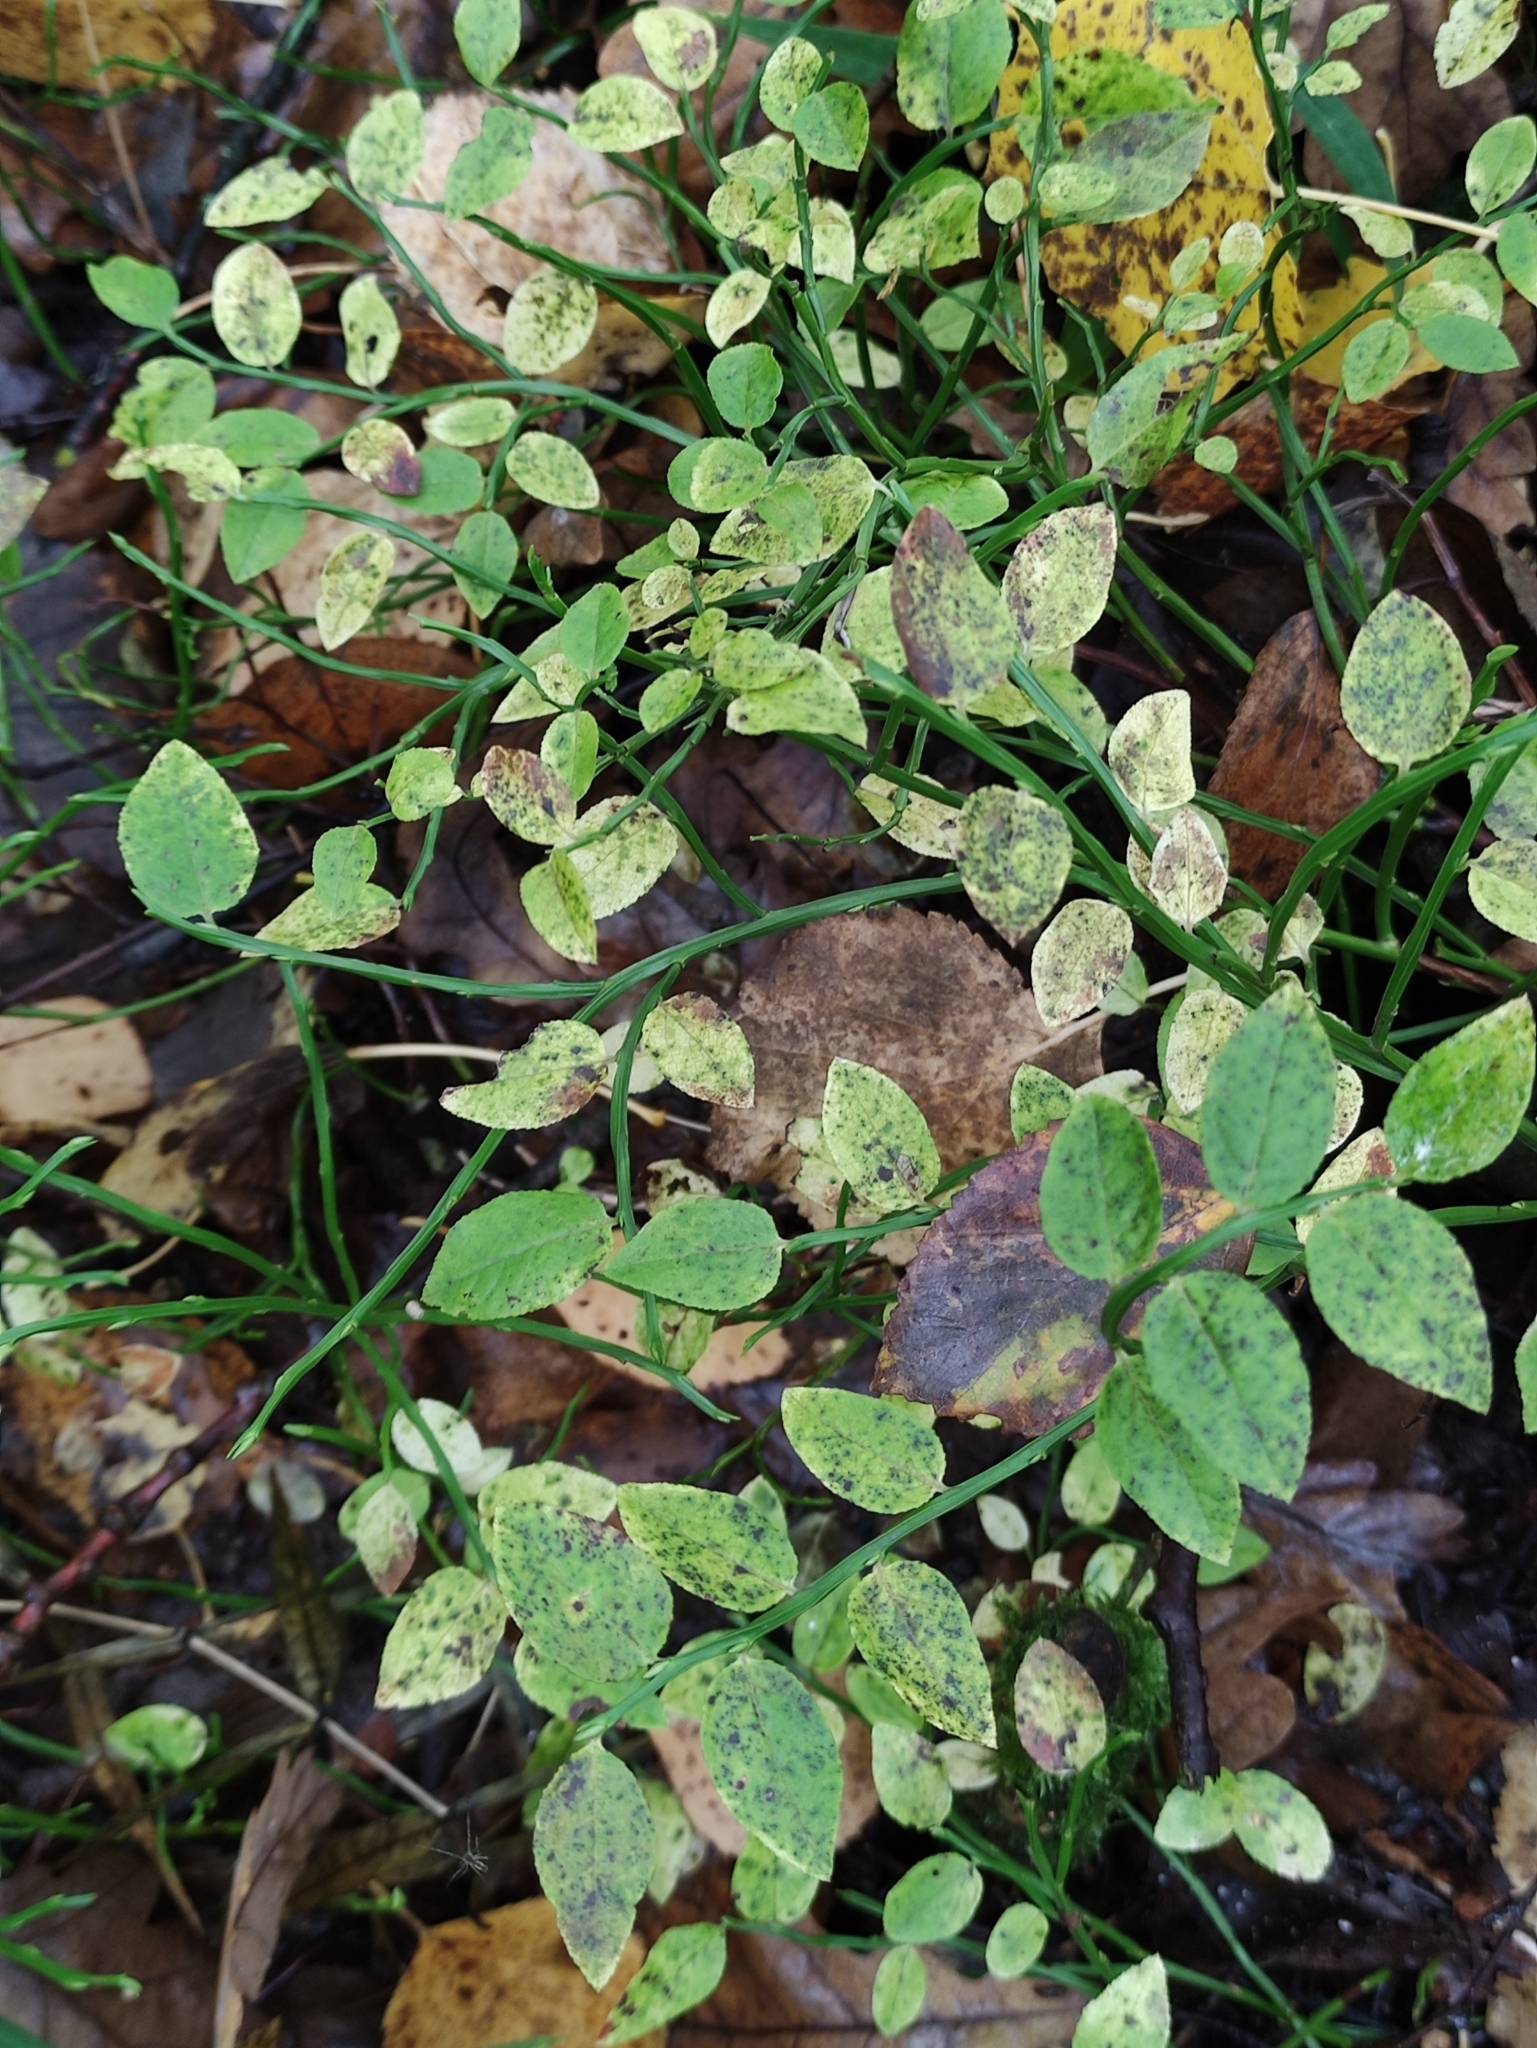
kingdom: Plantae
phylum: Tracheophyta
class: Magnoliopsida
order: Ericales
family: Ericaceae
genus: Vaccinium
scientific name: Vaccinium myrtillus
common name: Bilberry
